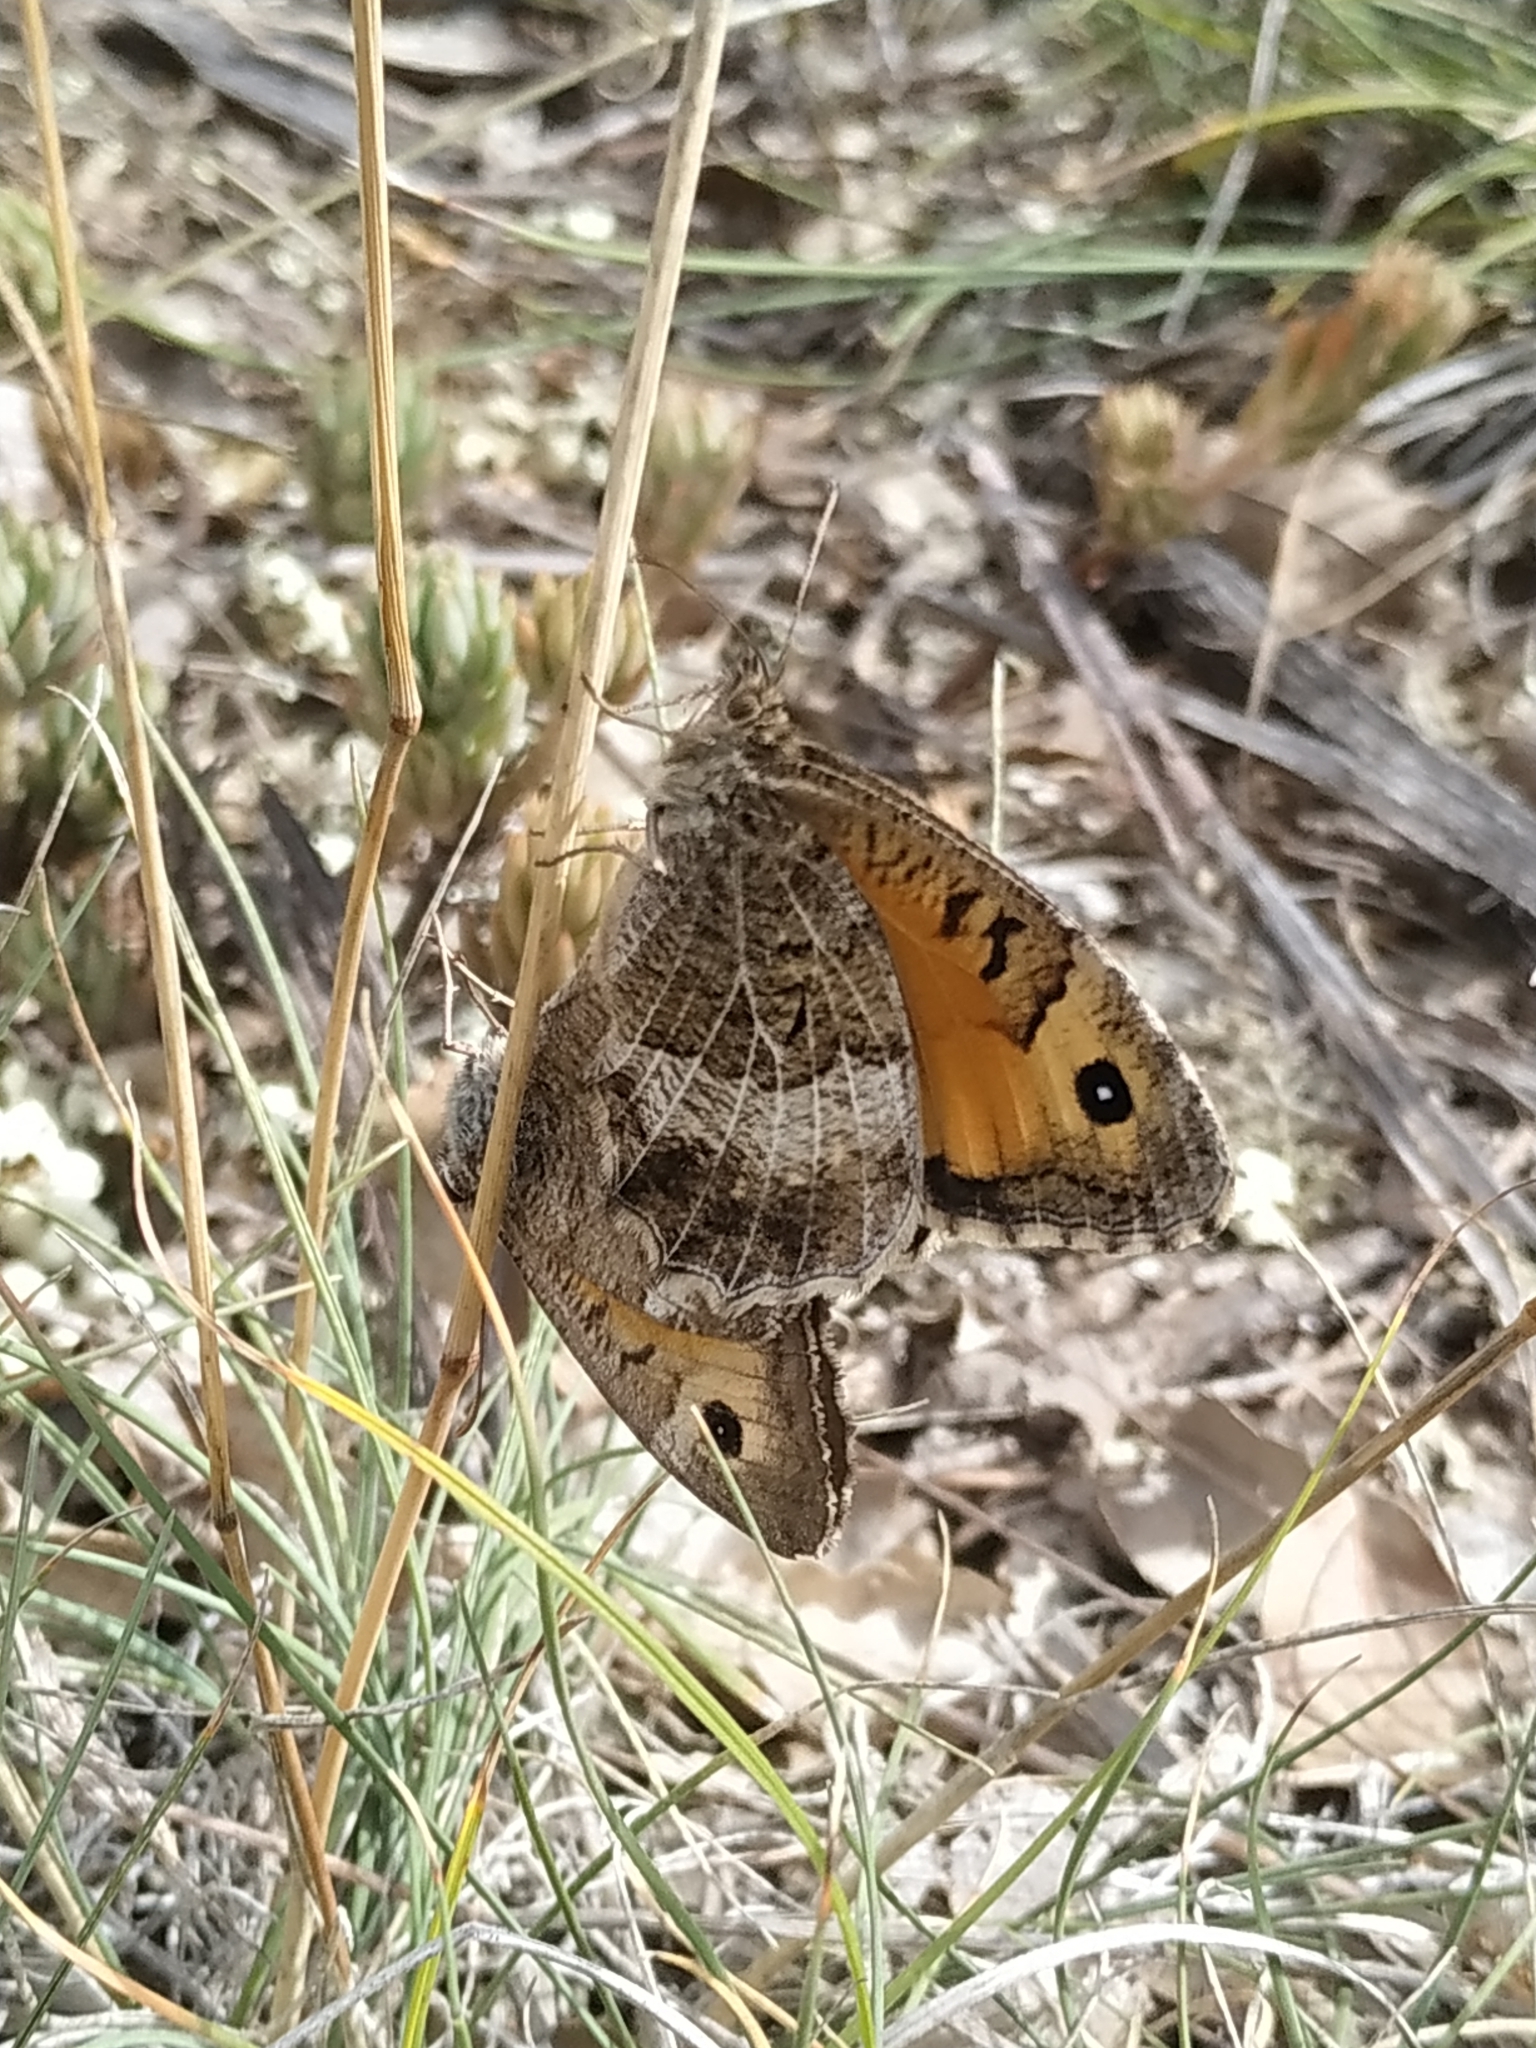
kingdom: Animalia
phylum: Arthropoda
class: Insecta
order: Lepidoptera
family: Nymphalidae
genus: Arethusana
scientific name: Arethusana arethusa
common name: False grayling
